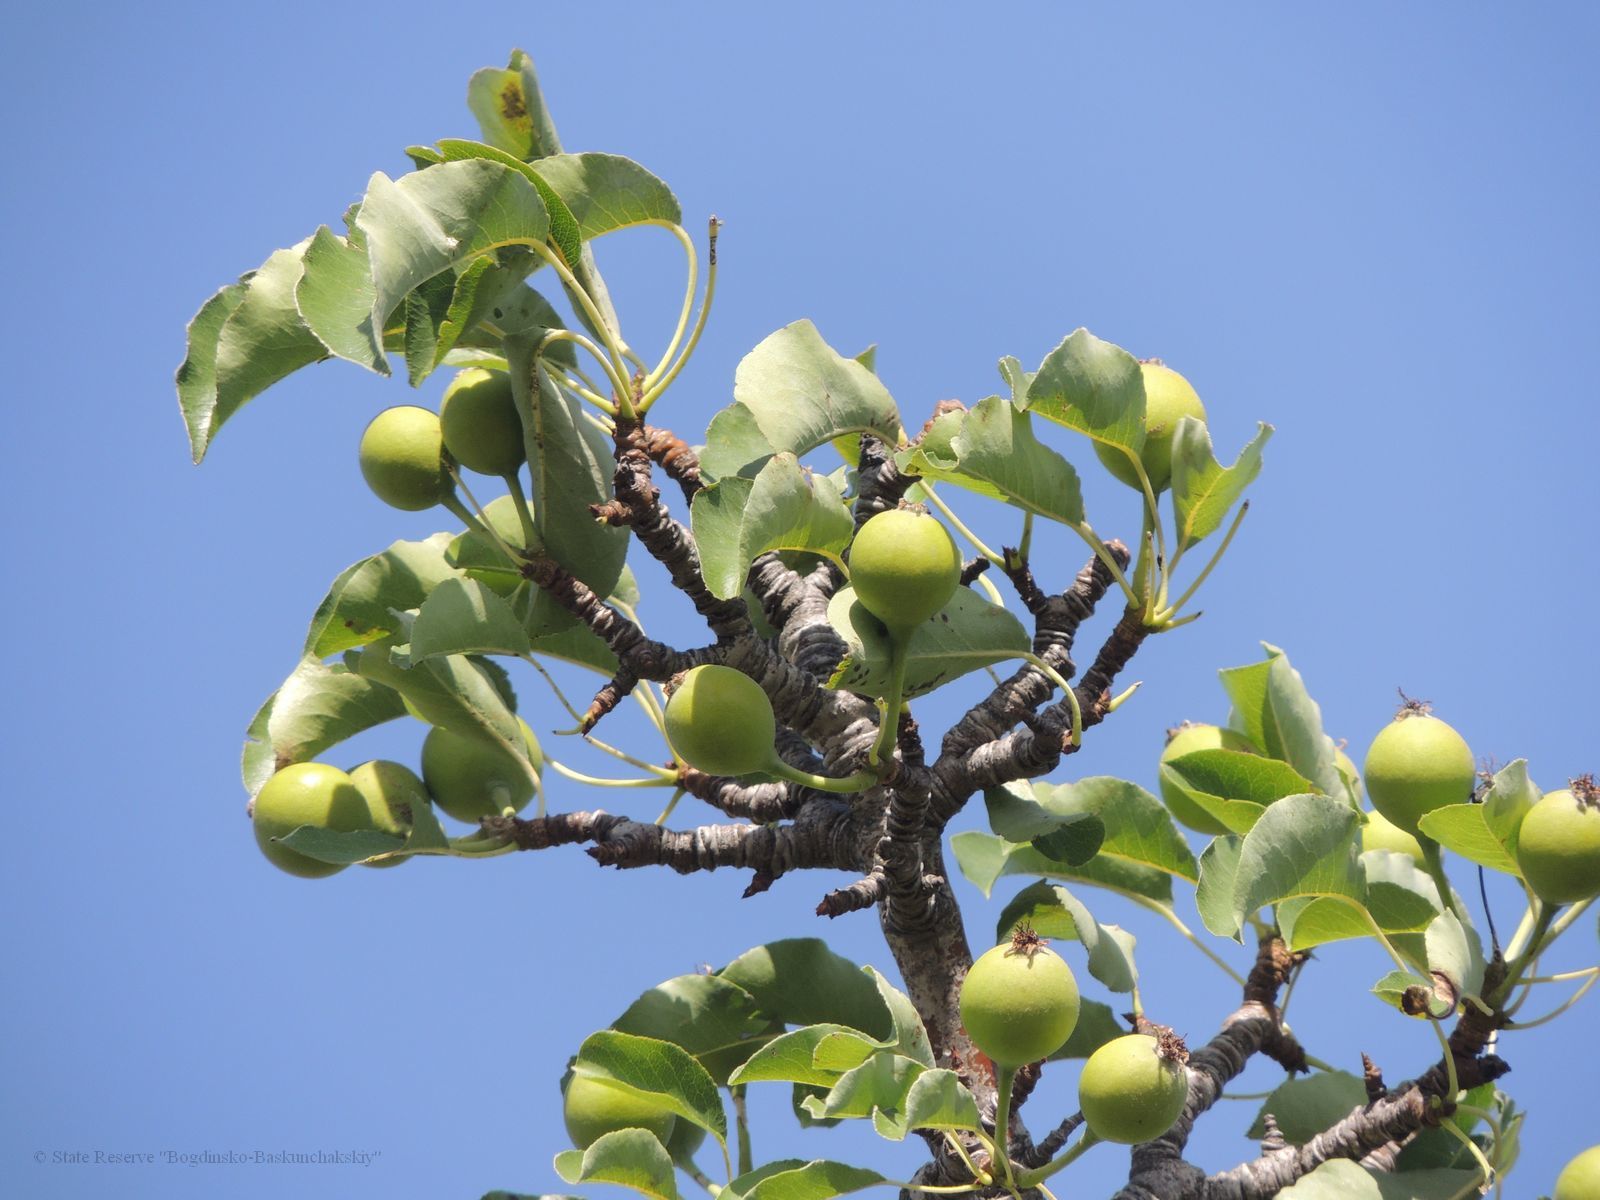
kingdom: Plantae
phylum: Tracheophyta
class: Magnoliopsida
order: Rosales
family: Rosaceae
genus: Pyrus
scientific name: Pyrus communis
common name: Pear
